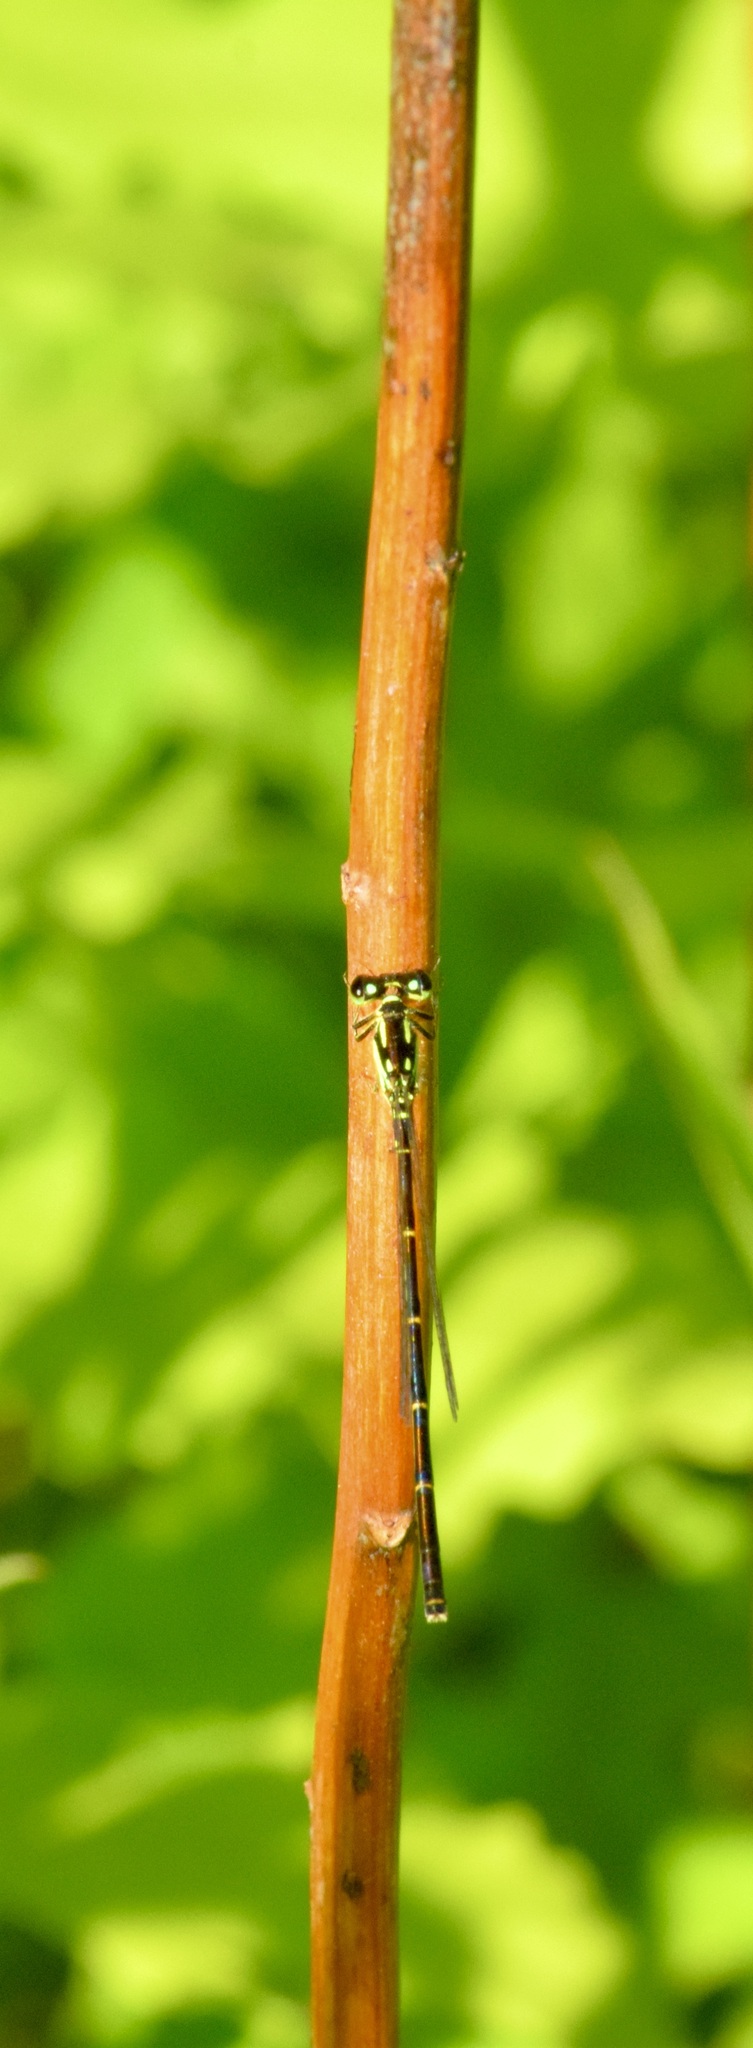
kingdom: Animalia
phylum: Arthropoda
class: Insecta
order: Odonata
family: Coenagrionidae
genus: Ischnura
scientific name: Ischnura posita
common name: Fragile forktail
